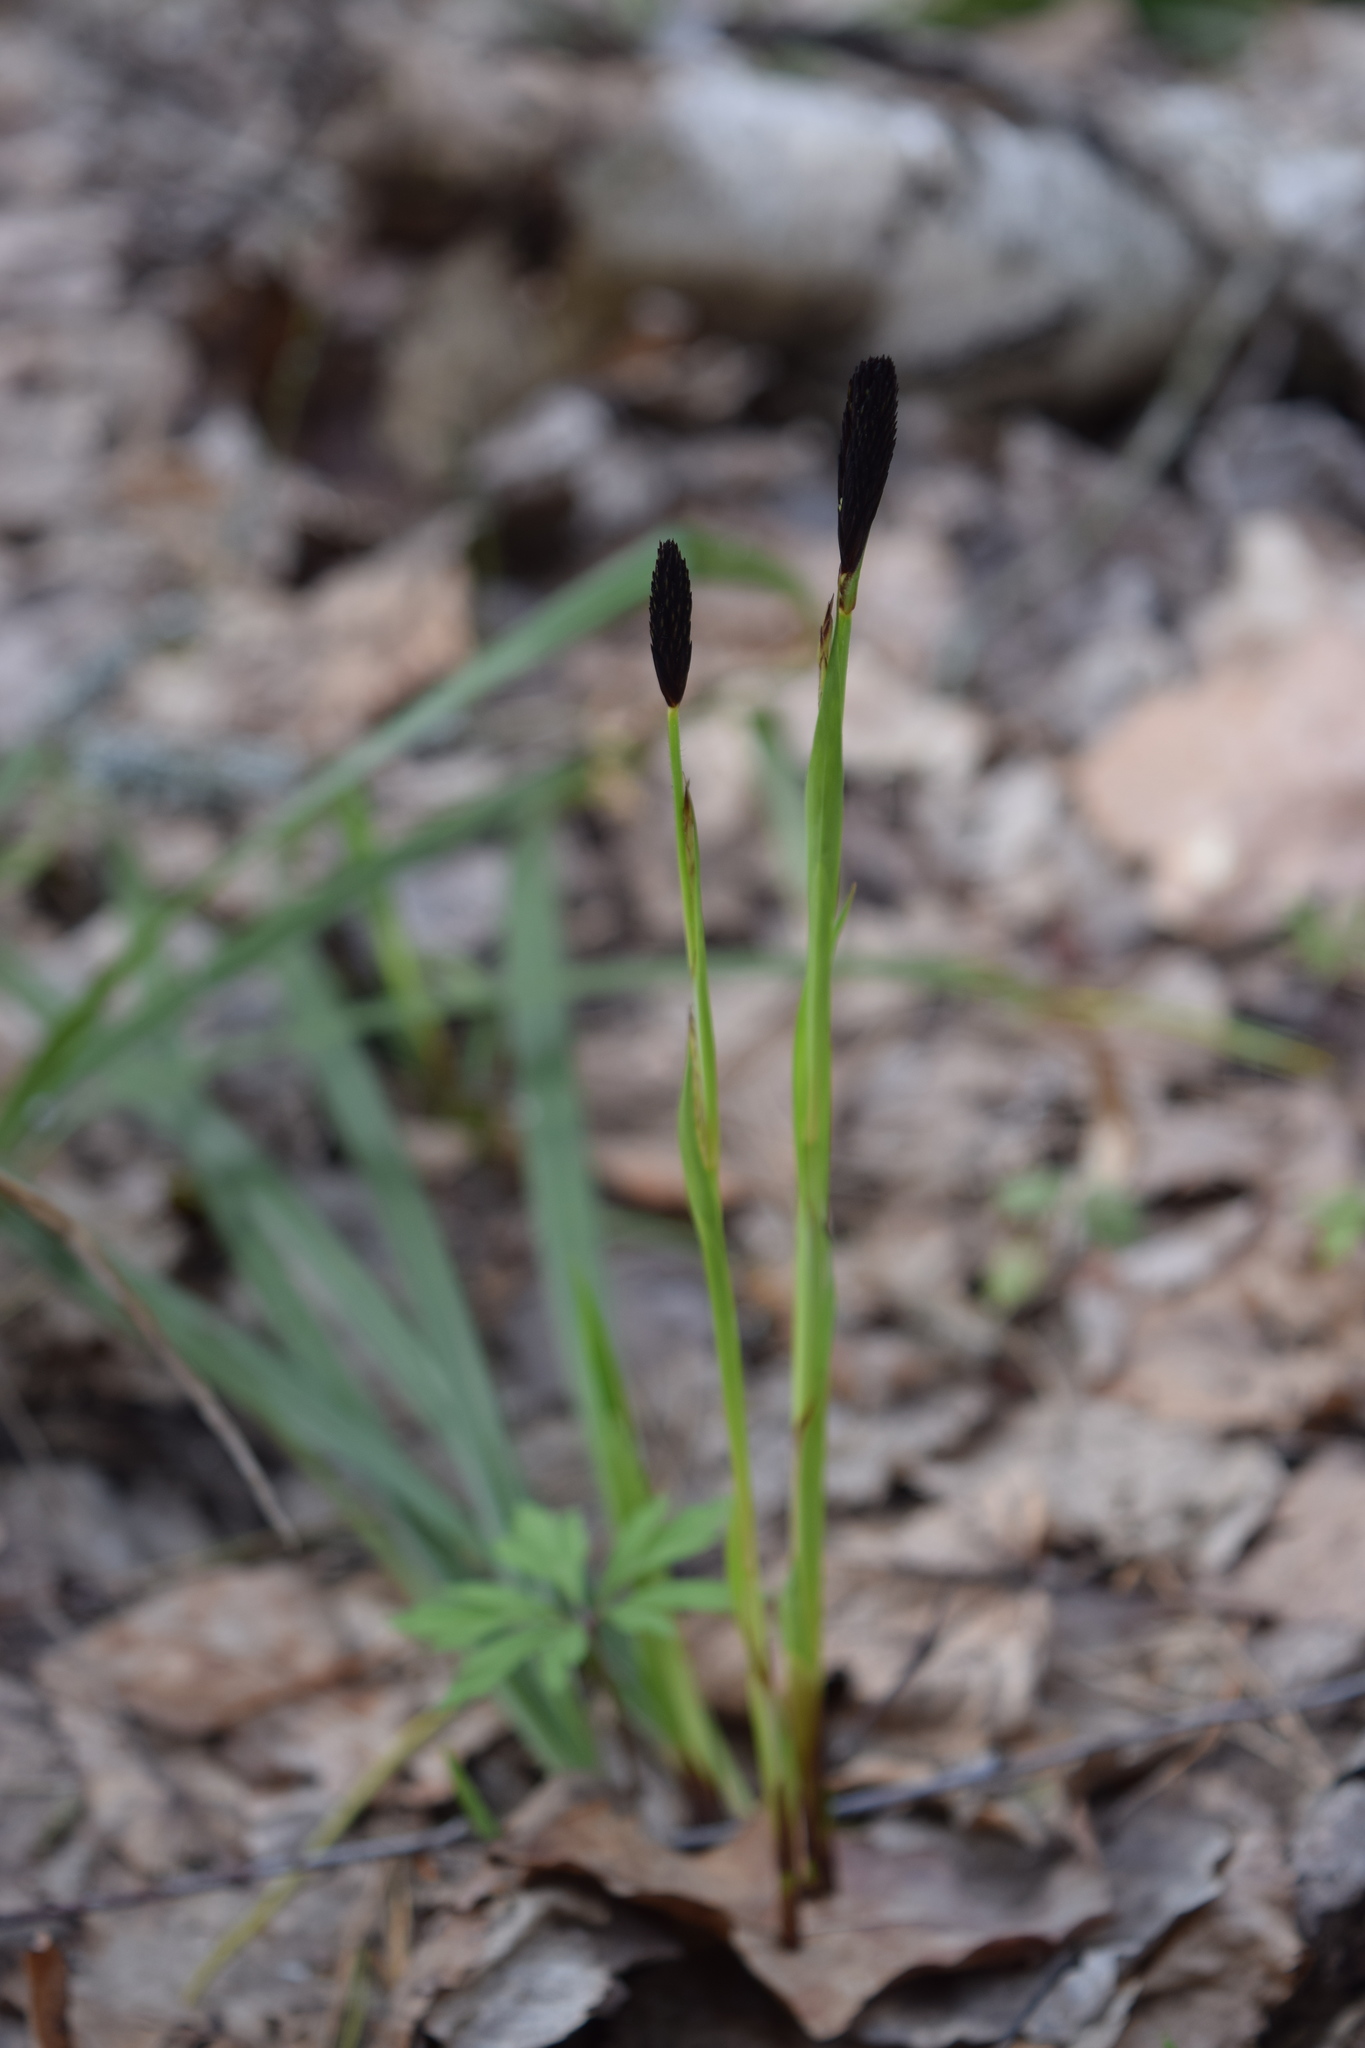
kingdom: Plantae
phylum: Tracheophyta
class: Liliopsida
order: Poales
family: Cyperaceae
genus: Carex
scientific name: Carex pilosa
